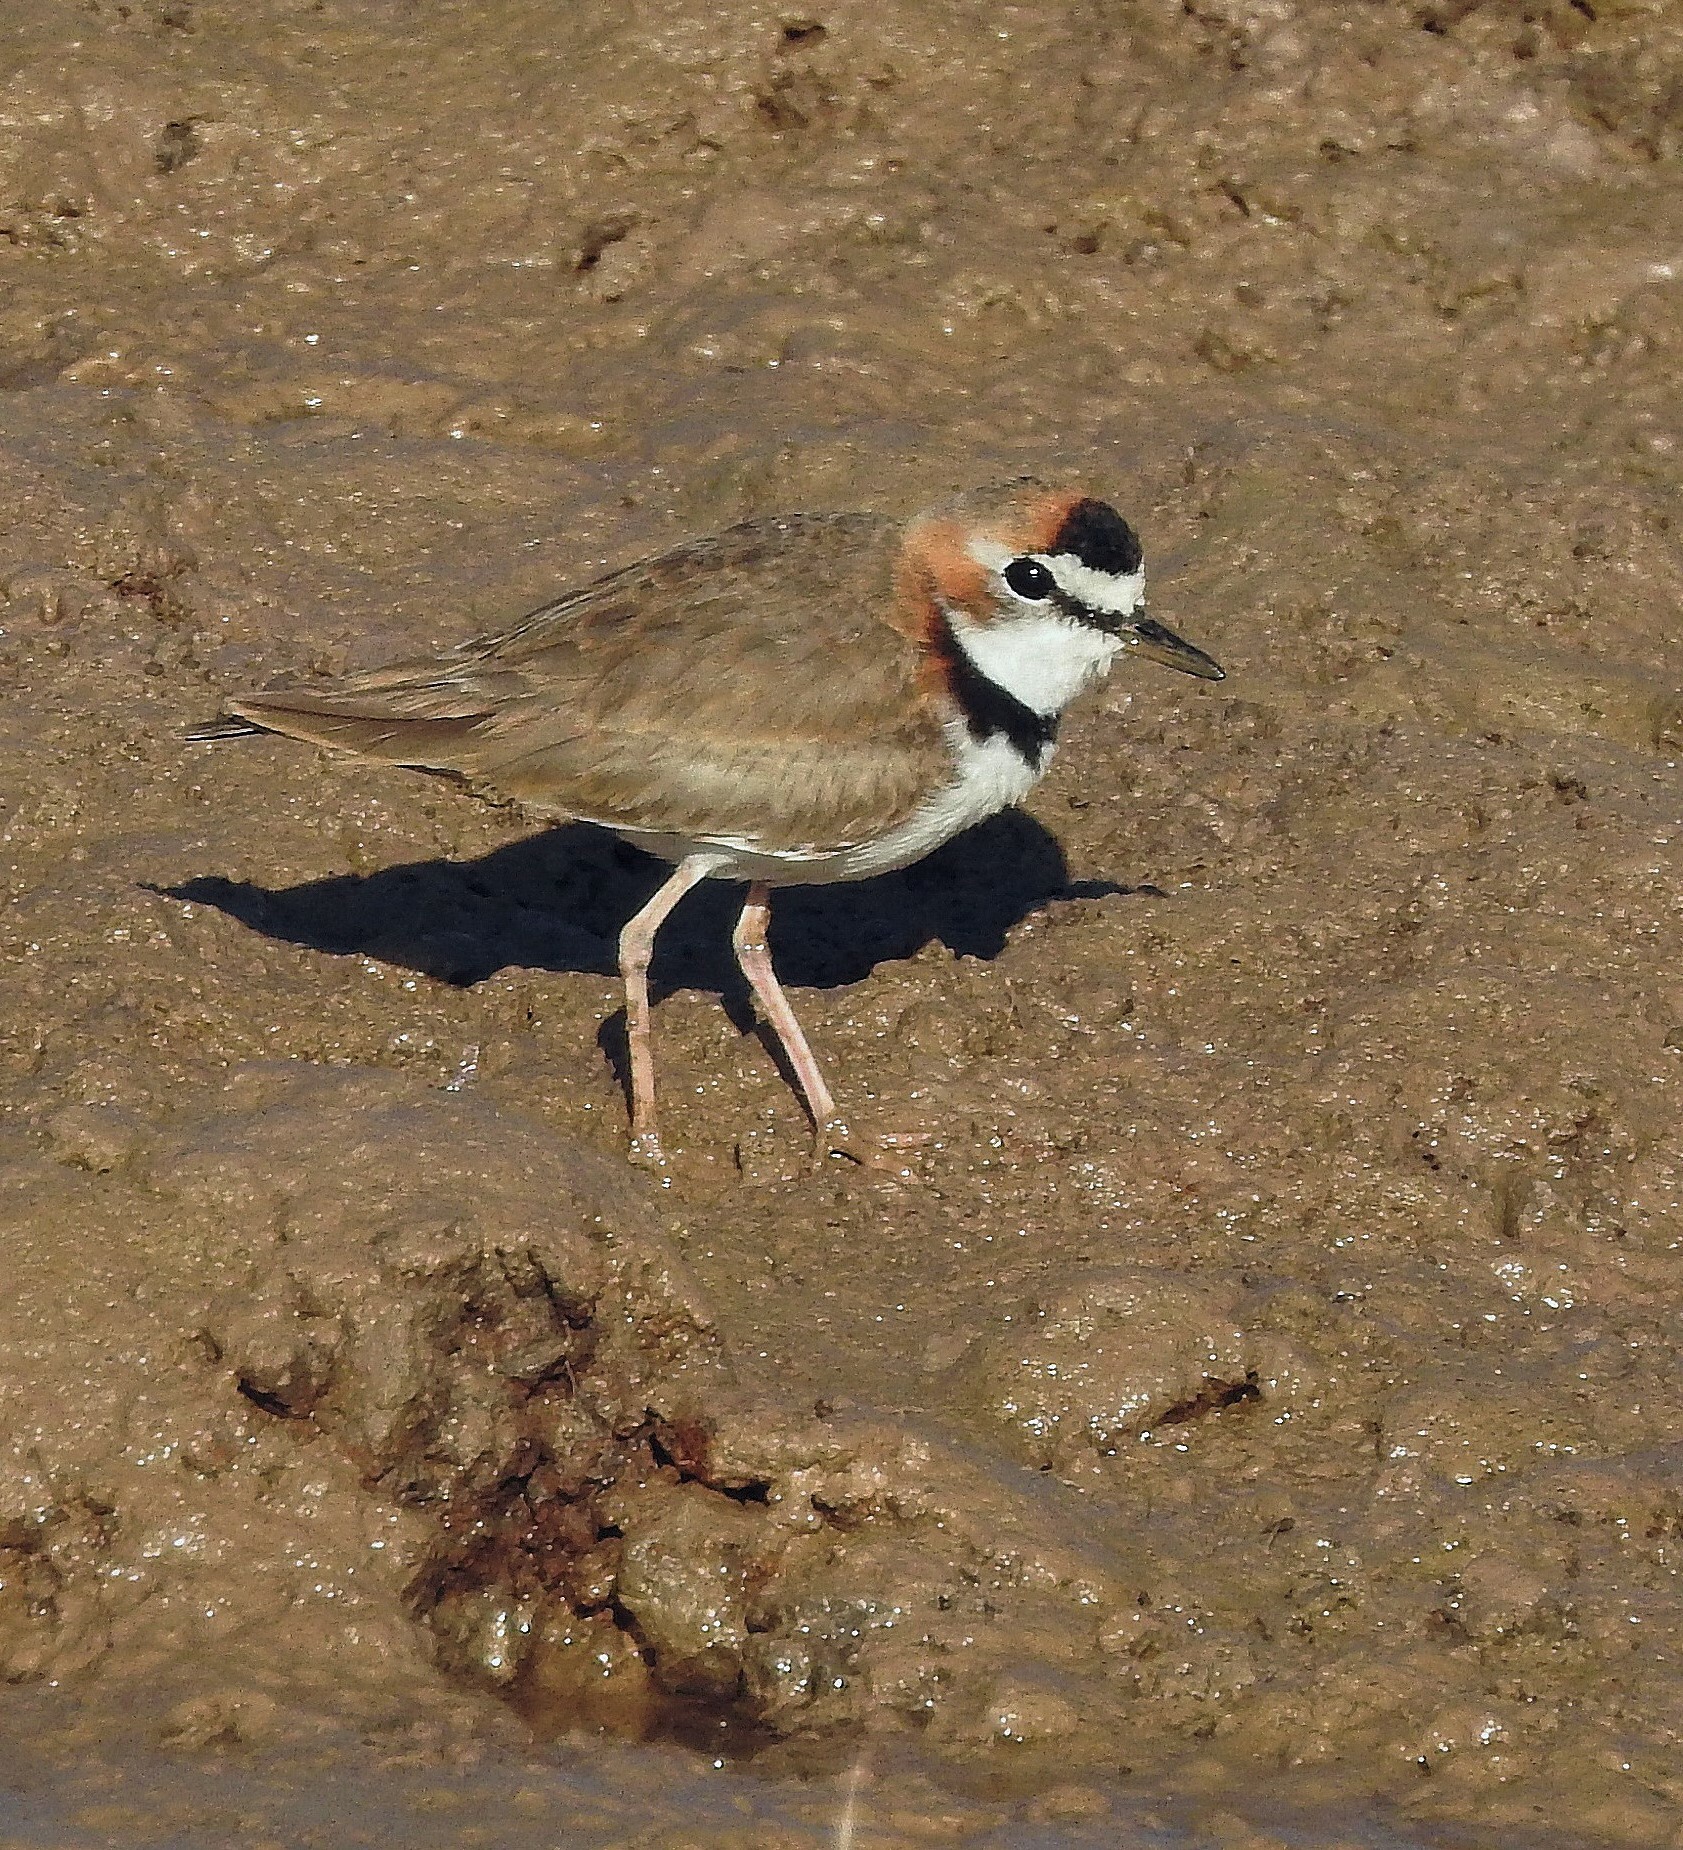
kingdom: Animalia
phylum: Chordata
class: Aves
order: Charadriiformes
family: Charadriidae
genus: Anarhynchus
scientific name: Anarhynchus
